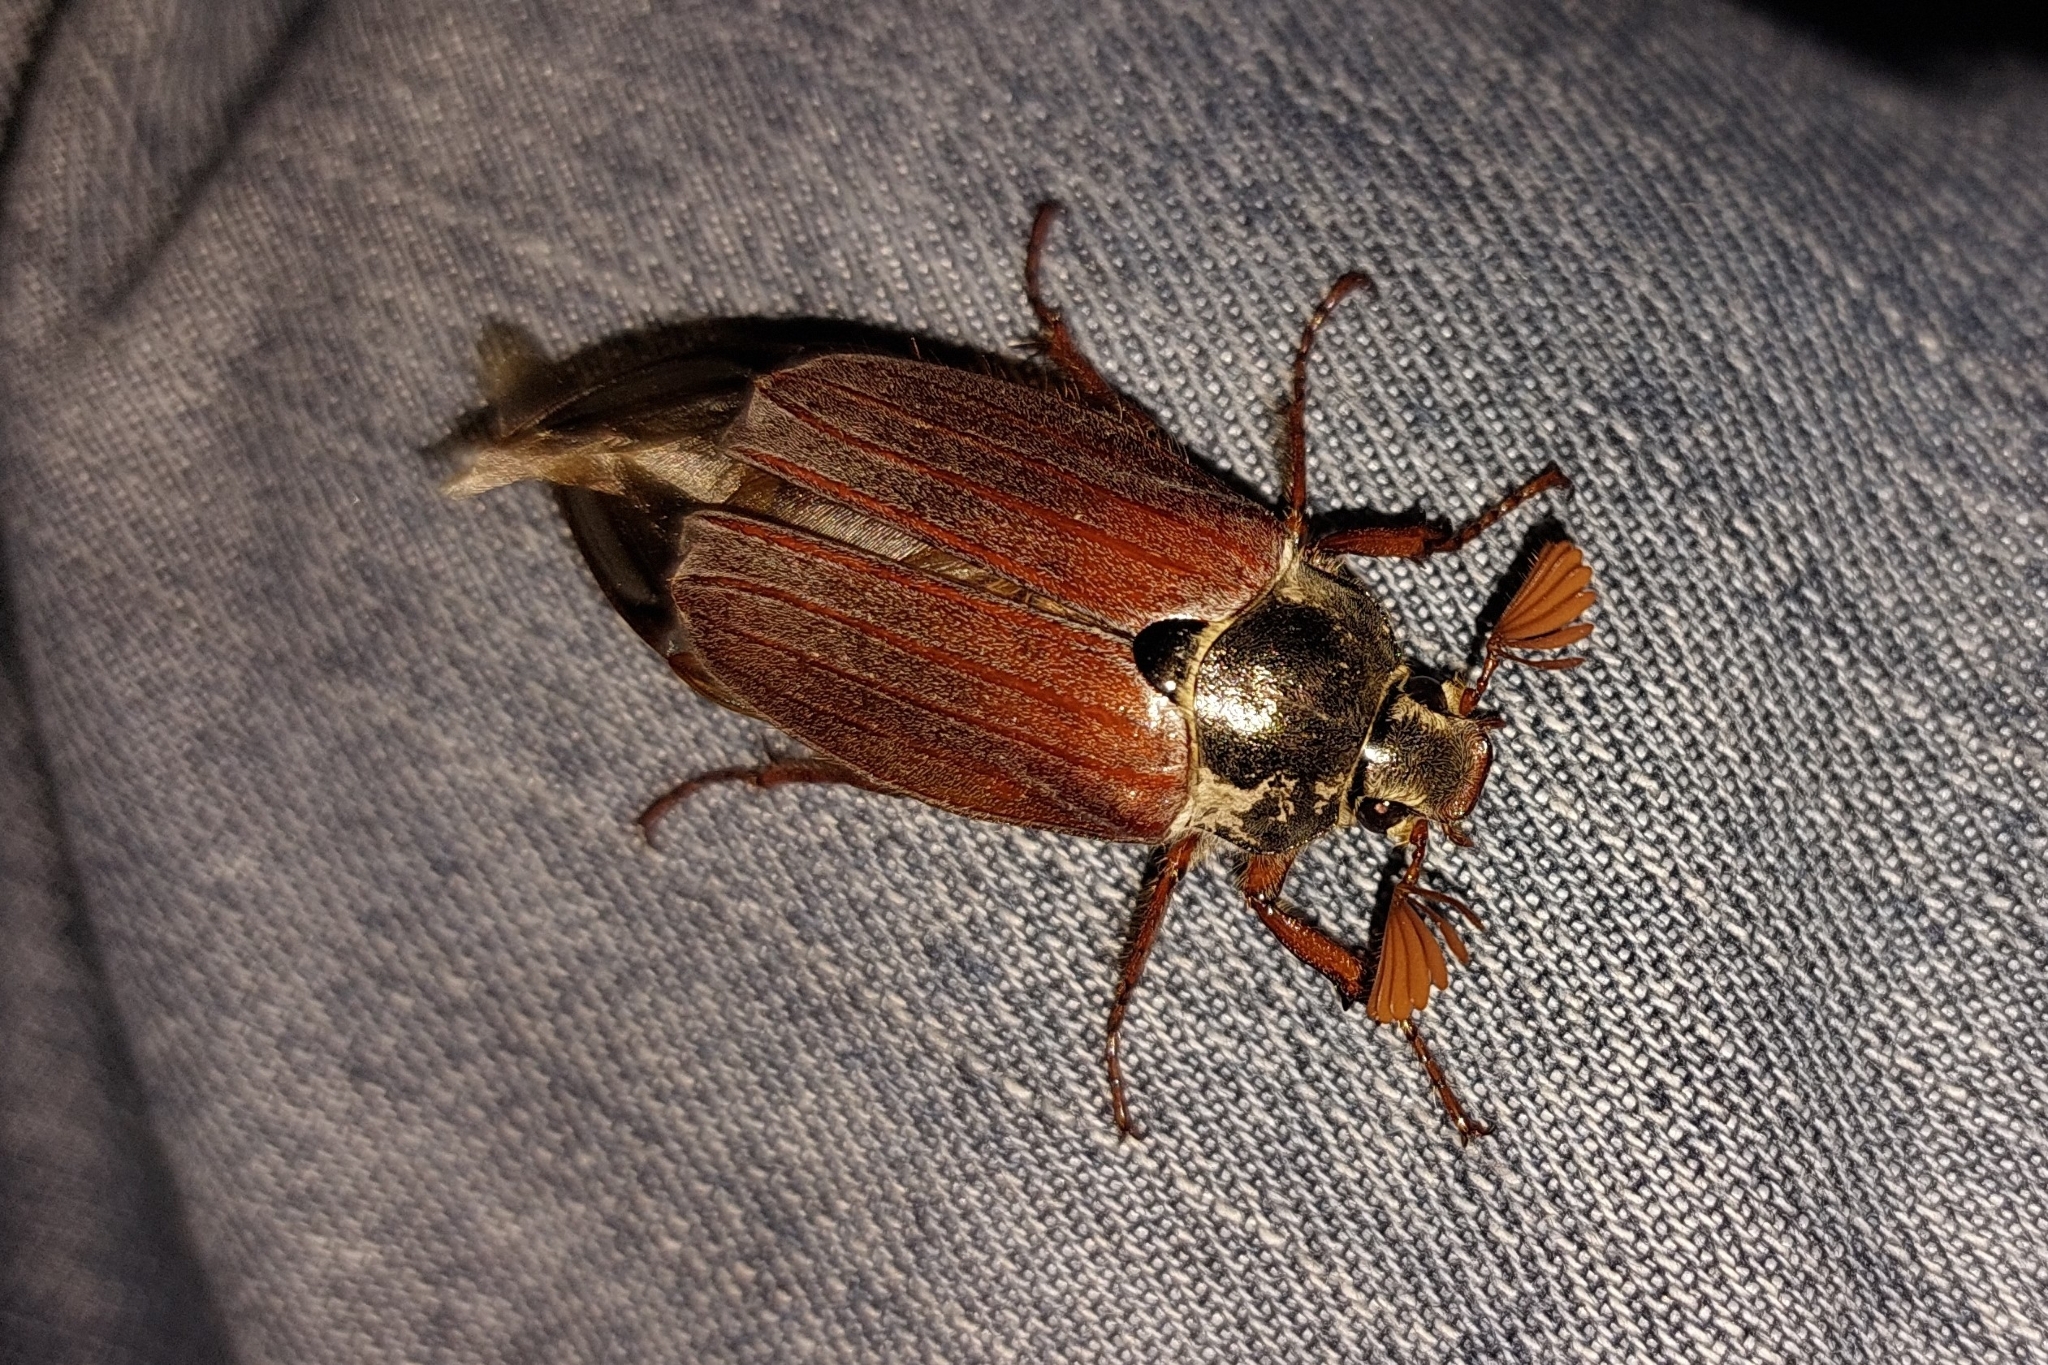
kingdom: Animalia
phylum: Arthropoda
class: Insecta
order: Coleoptera
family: Scarabaeidae
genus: Melolontha
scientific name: Melolontha melolontha
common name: Cockchafer maybeetle
